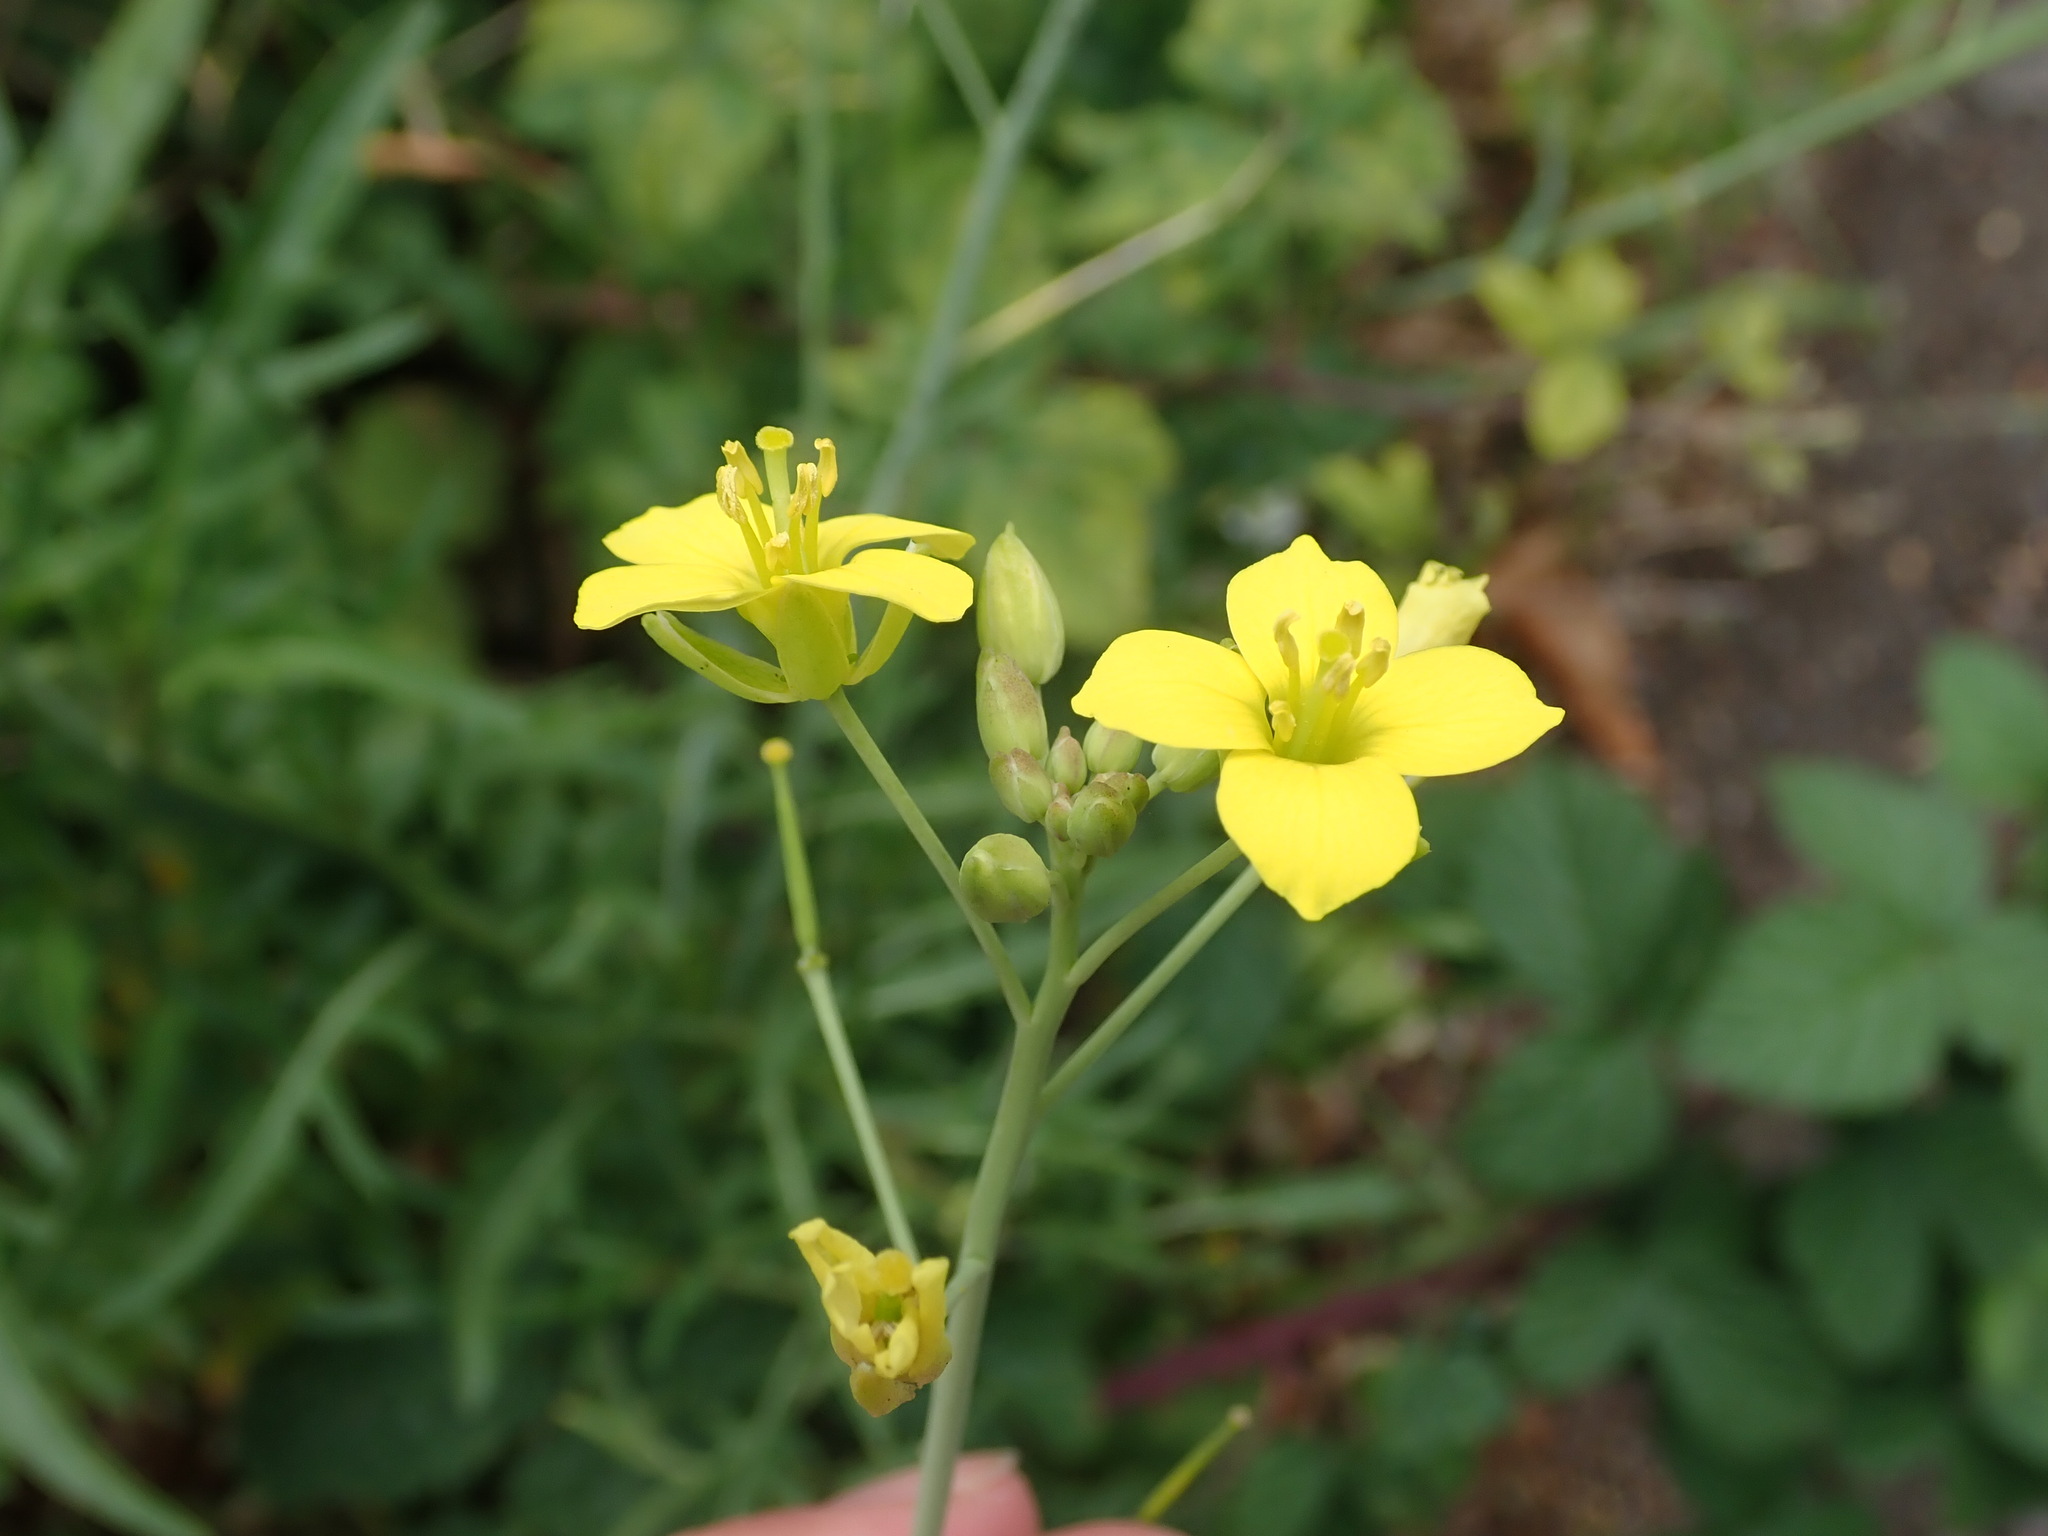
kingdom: Plantae
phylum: Tracheophyta
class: Magnoliopsida
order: Brassicales
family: Brassicaceae
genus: Diplotaxis
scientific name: Diplotaxis tenuifolia
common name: Perennial wall-rocket
